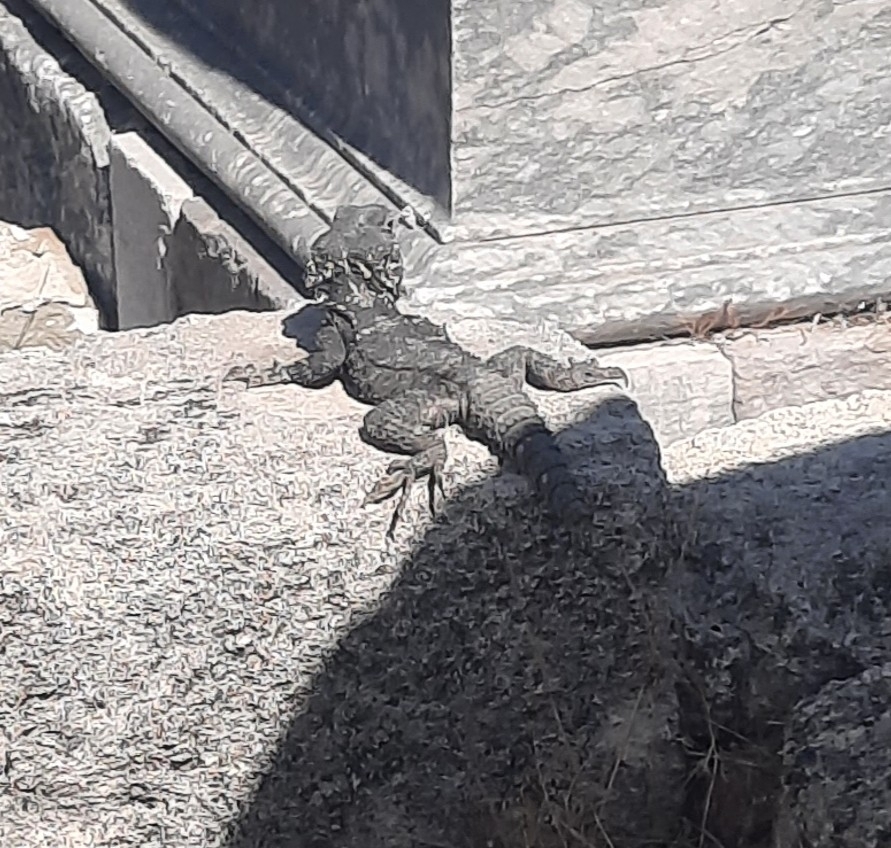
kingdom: Animalia
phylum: Chordata
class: Squamata
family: Agamidae
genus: Stellagama
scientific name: Stellagama stellio
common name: Starred agama
